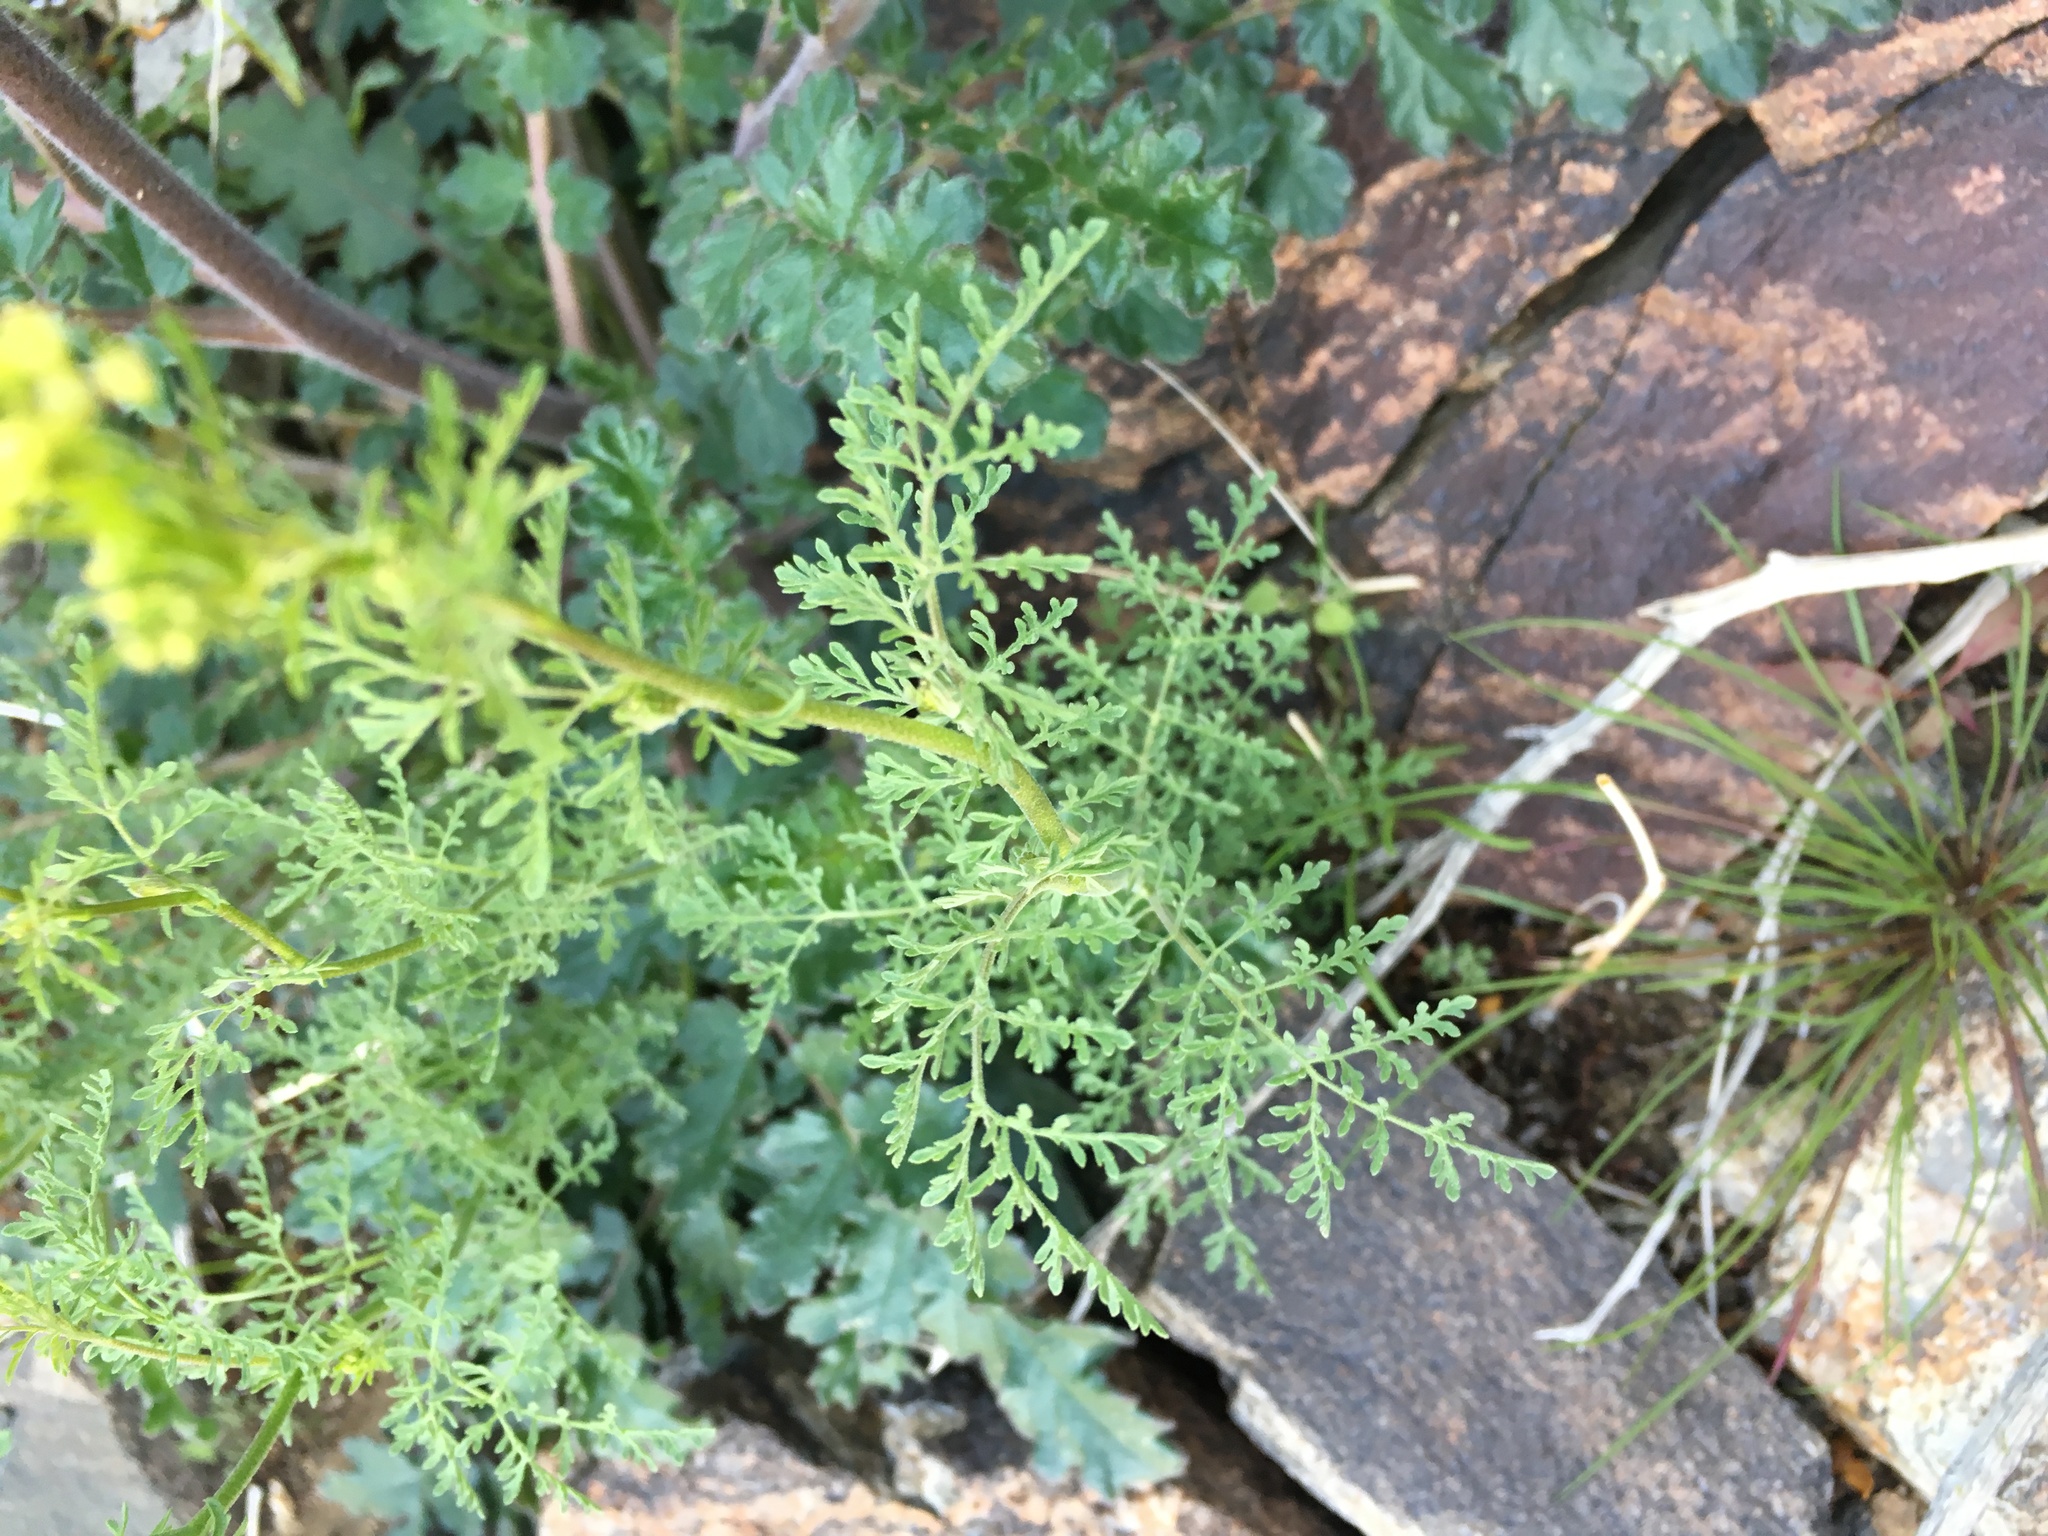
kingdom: Plantae
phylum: Tracheophyta
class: Magnoliopsida
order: Brassicales
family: Brassicaceae
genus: Descurainia
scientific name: Descurainia pinnata
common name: Western tansy mustard
